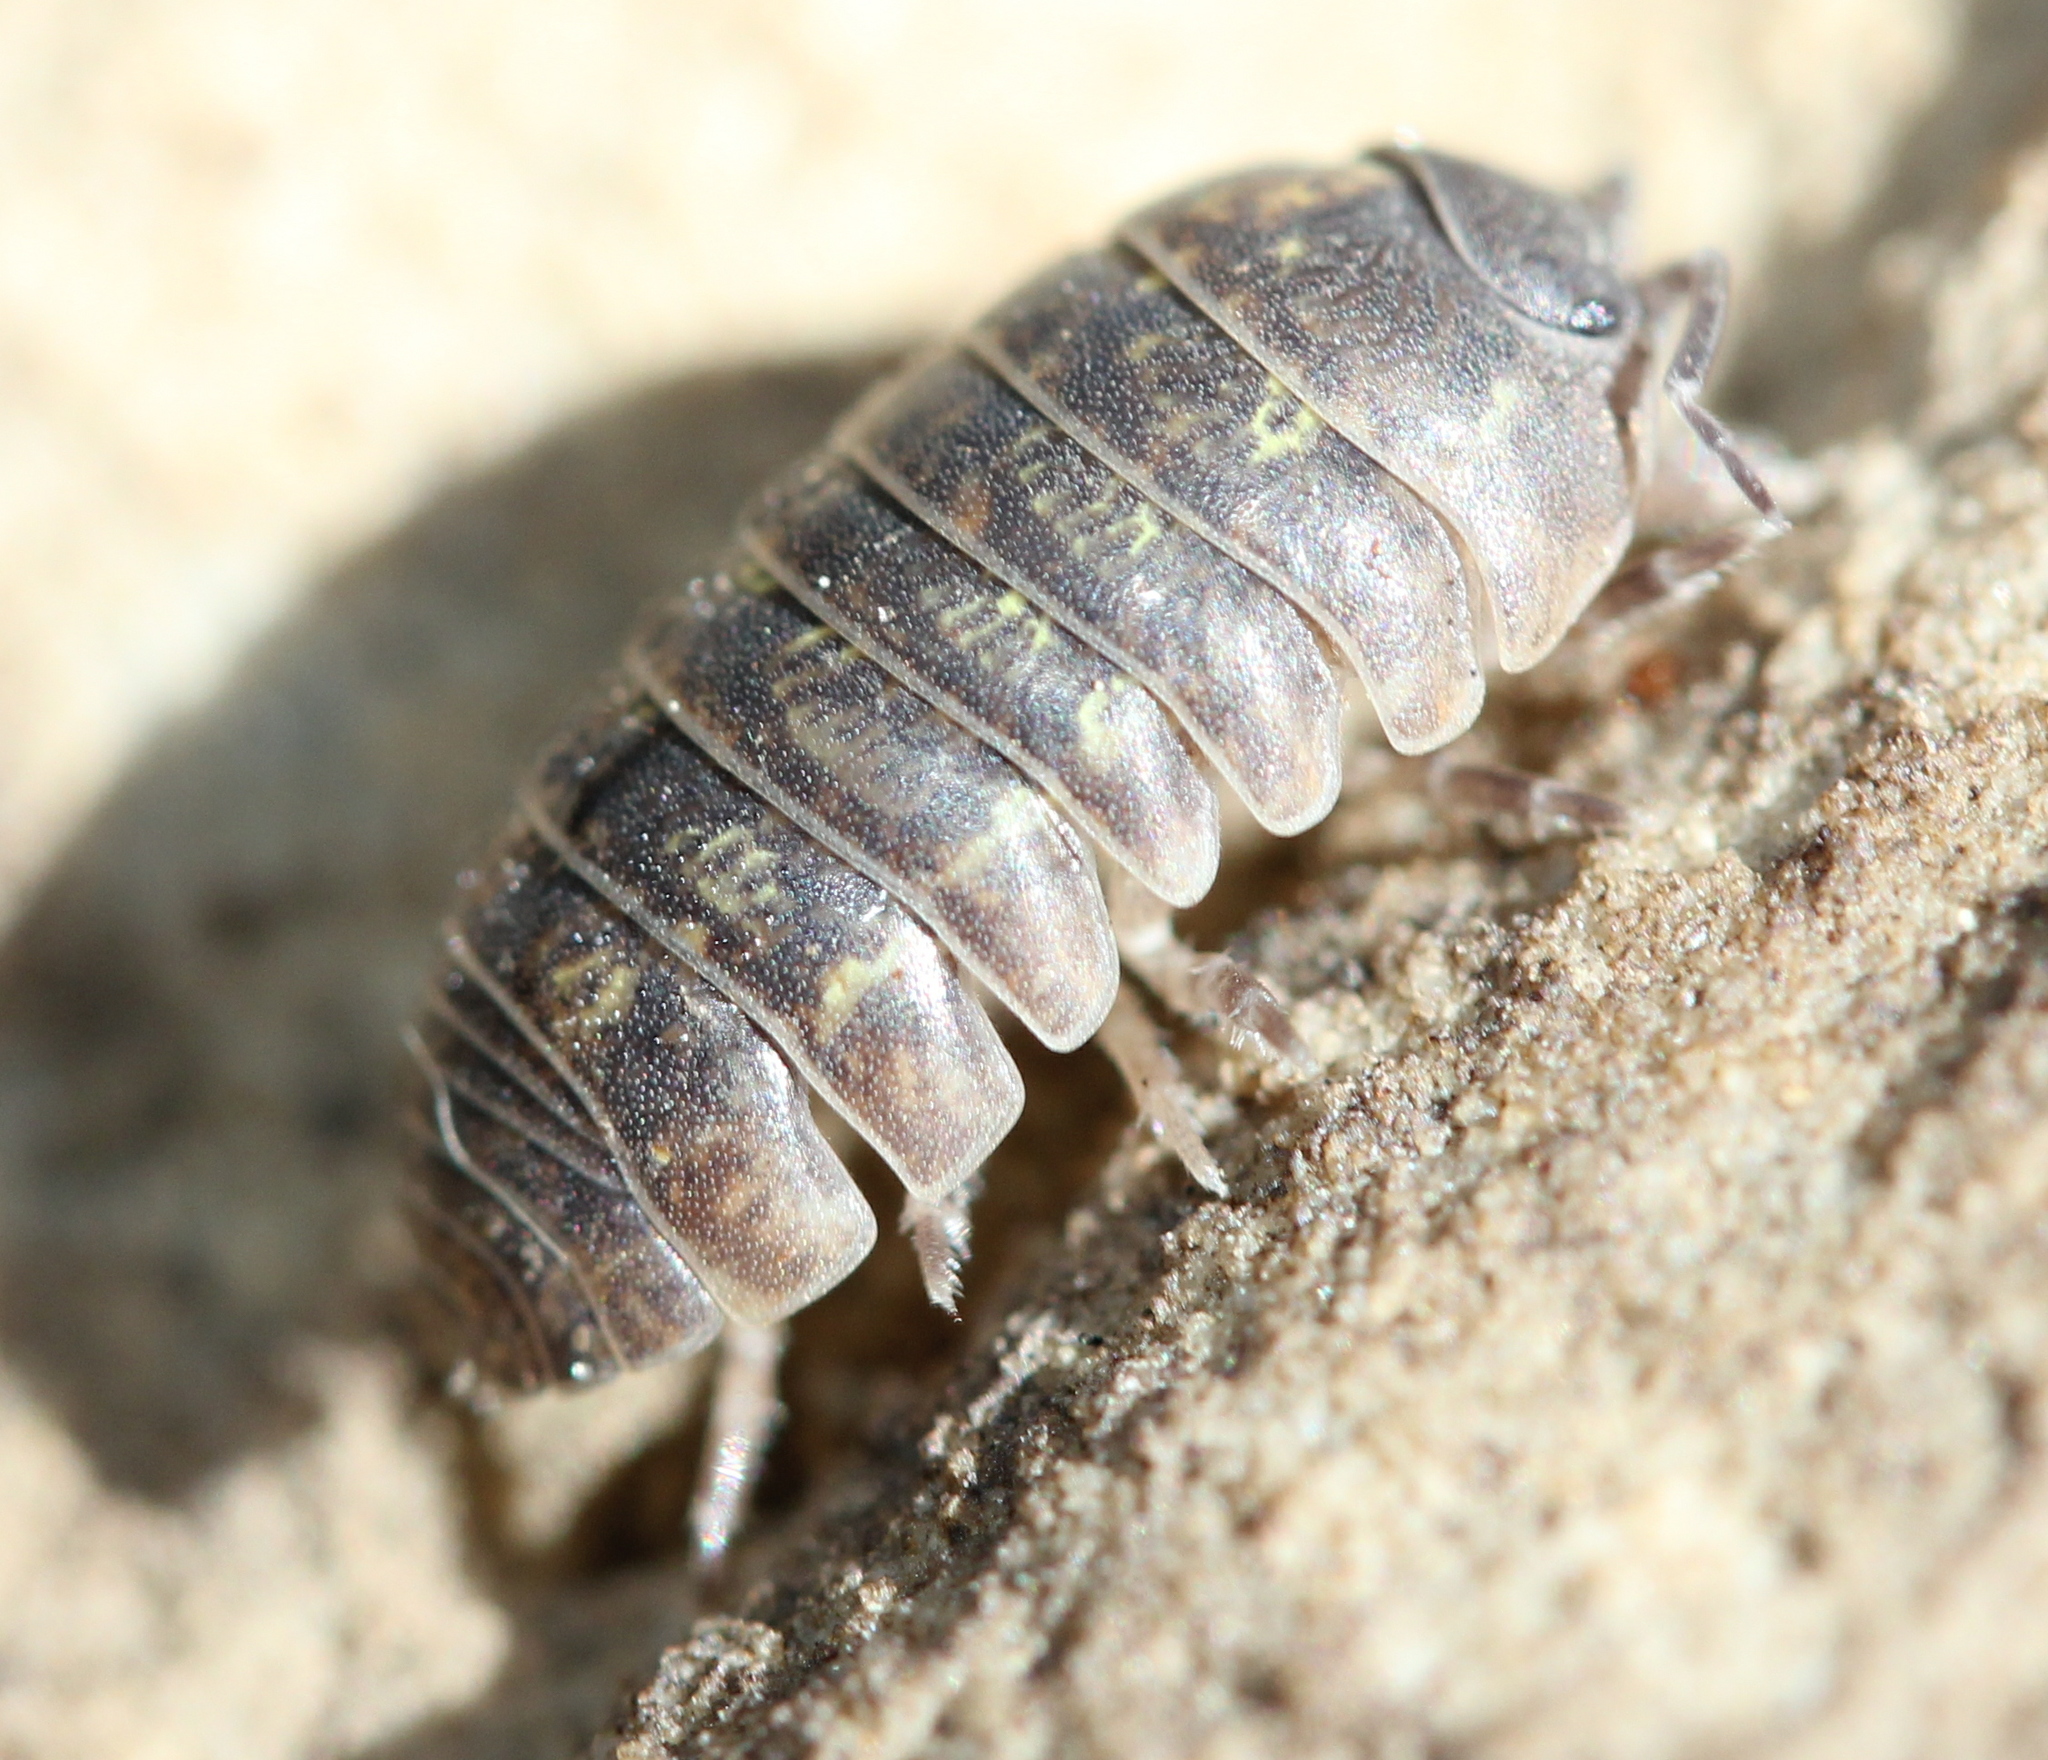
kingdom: Animalia
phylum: Arthropoda
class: Malacostraca
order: Isopoda
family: Armadillidiidae
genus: Armadillidium
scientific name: Armadillidium vulgare
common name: Common pill woodlouse
